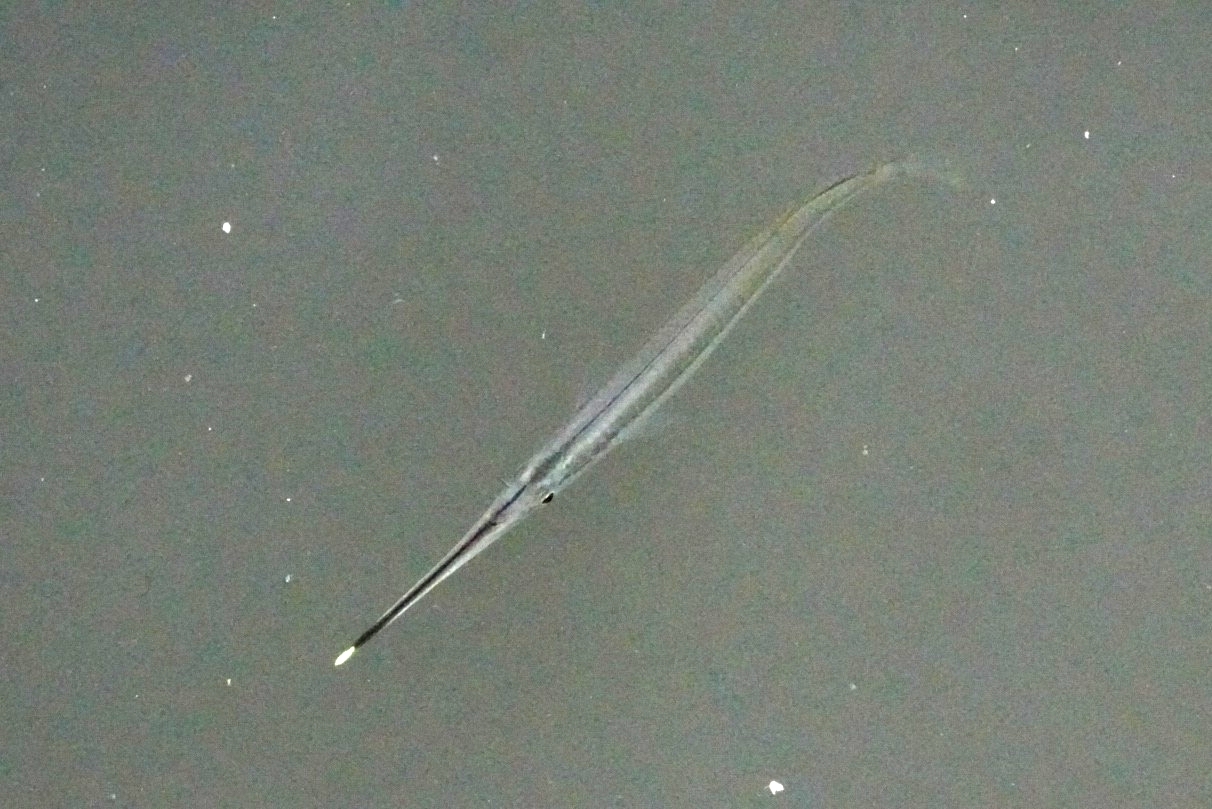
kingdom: Animalia
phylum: Chordata
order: Beloniformes
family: Zenarchopteridae
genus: Zenarchopterus
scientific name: Zenarchopterus buffonis
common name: Buffon's river-garfish
